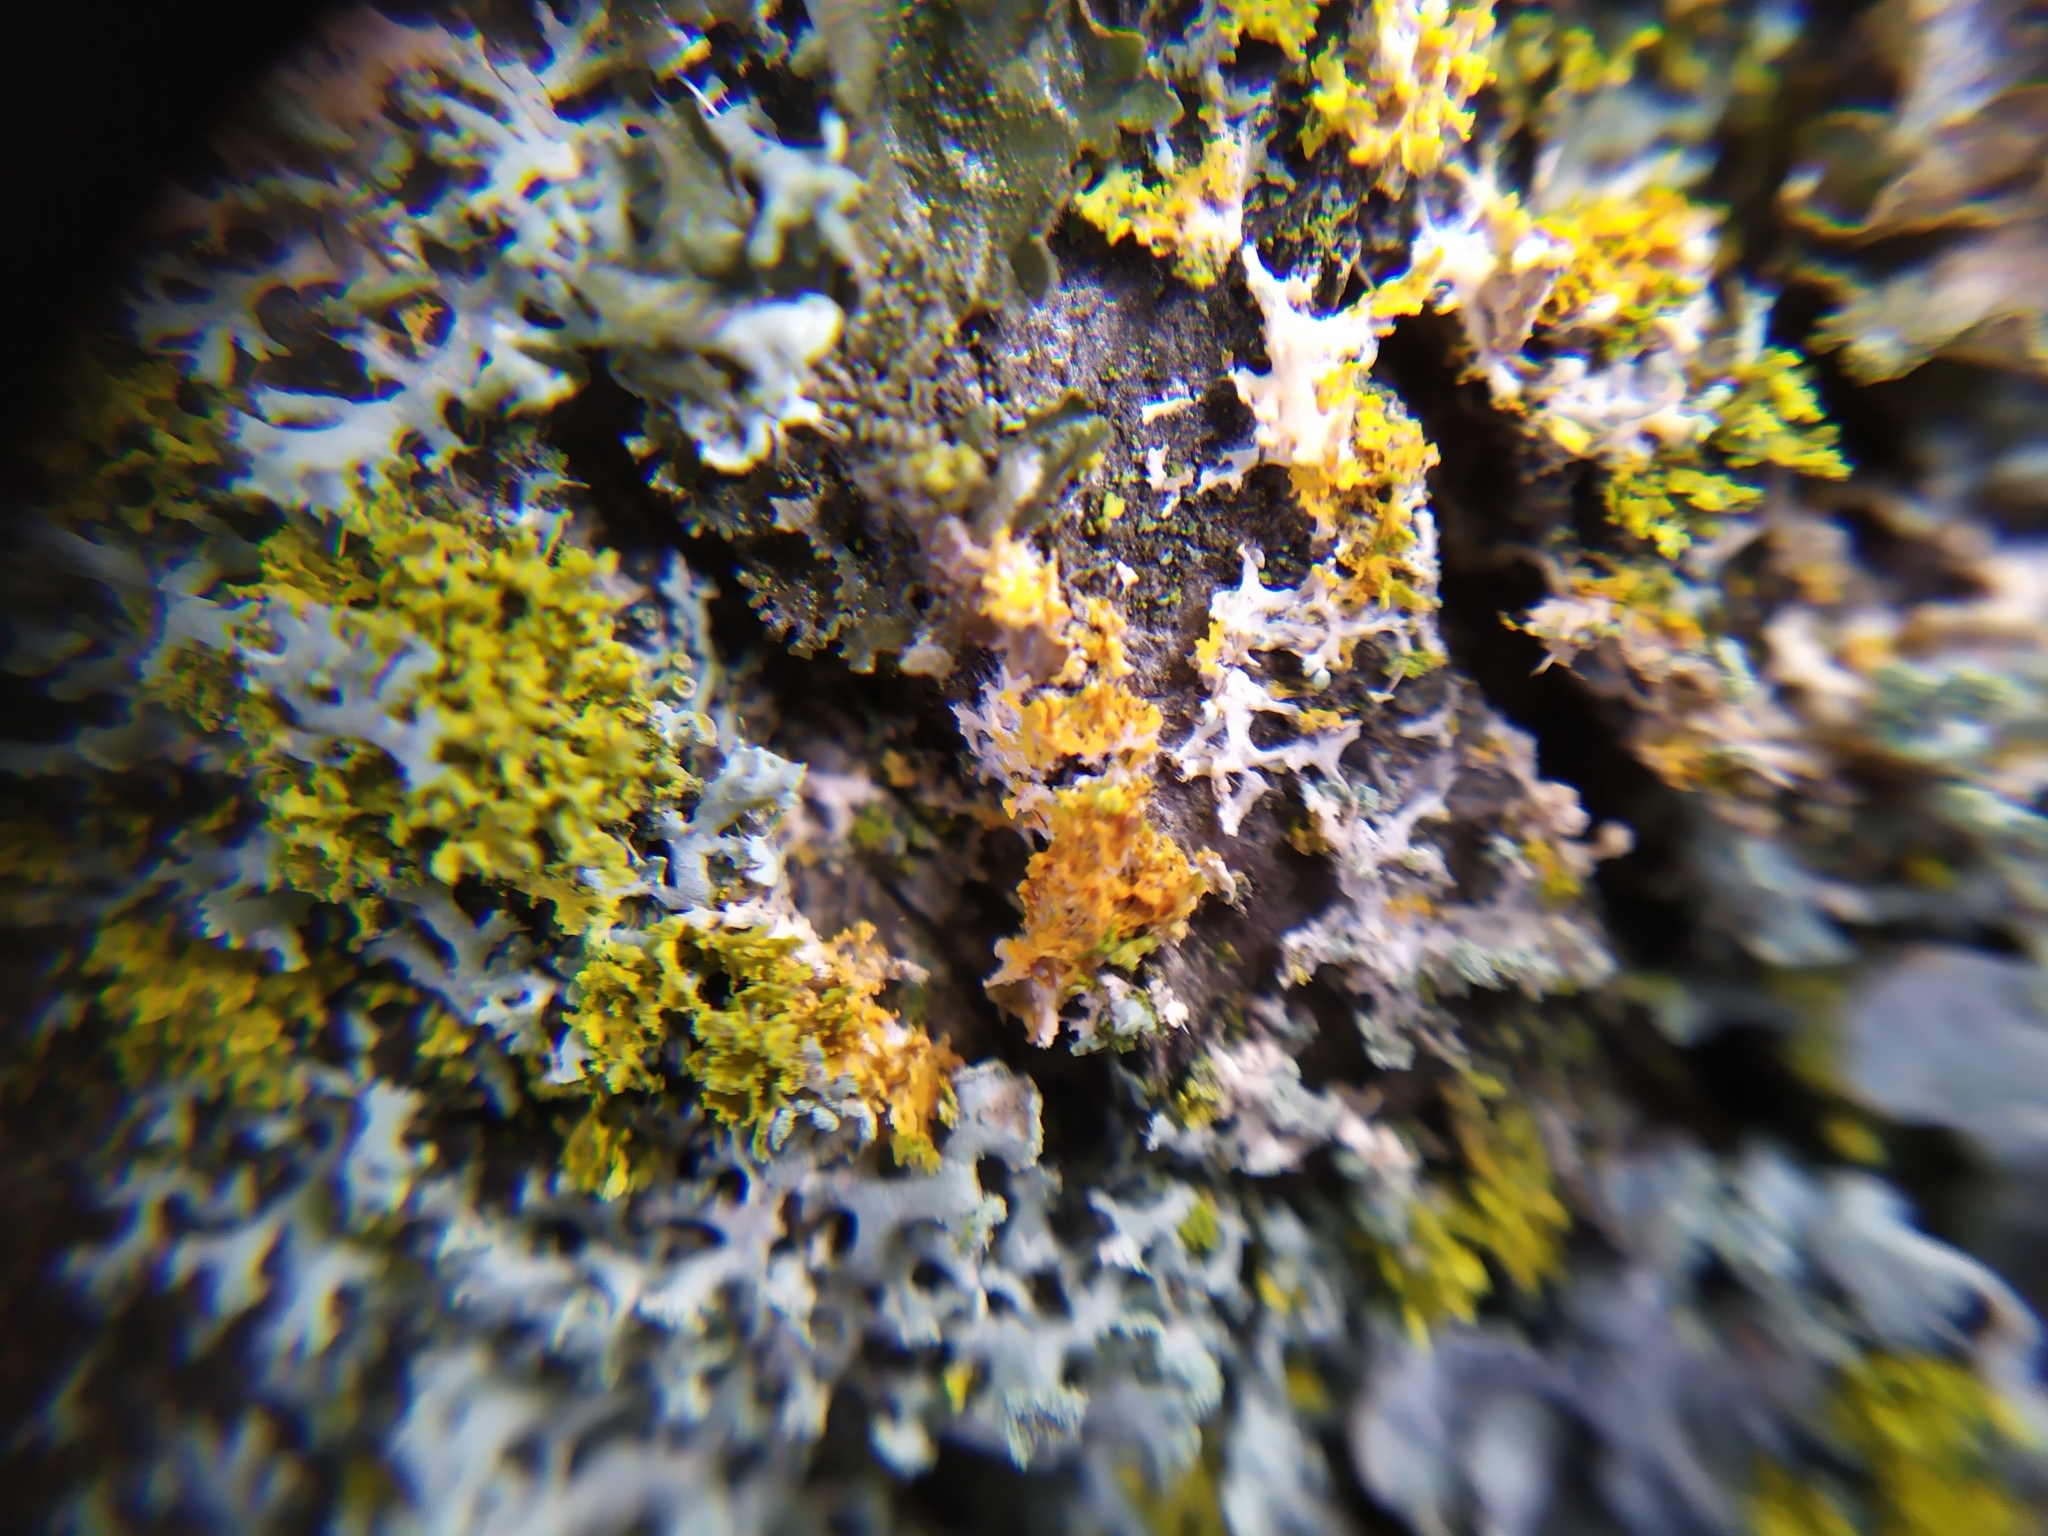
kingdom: Fungi
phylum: Basidiomycota
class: Agaricomycetes
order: Atheliales
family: Atheliaceae
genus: Athelia
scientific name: Athelia arachnoidea
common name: Candelabra duster
